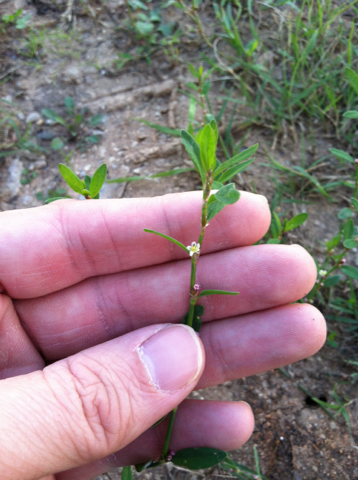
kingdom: Plantae
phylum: Tracheophyta
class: Magnoliopsida
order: Caryophyllales
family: Polygonaceae
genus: Polygonum
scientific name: Polygonum aviculare
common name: Prostrate knotweed
